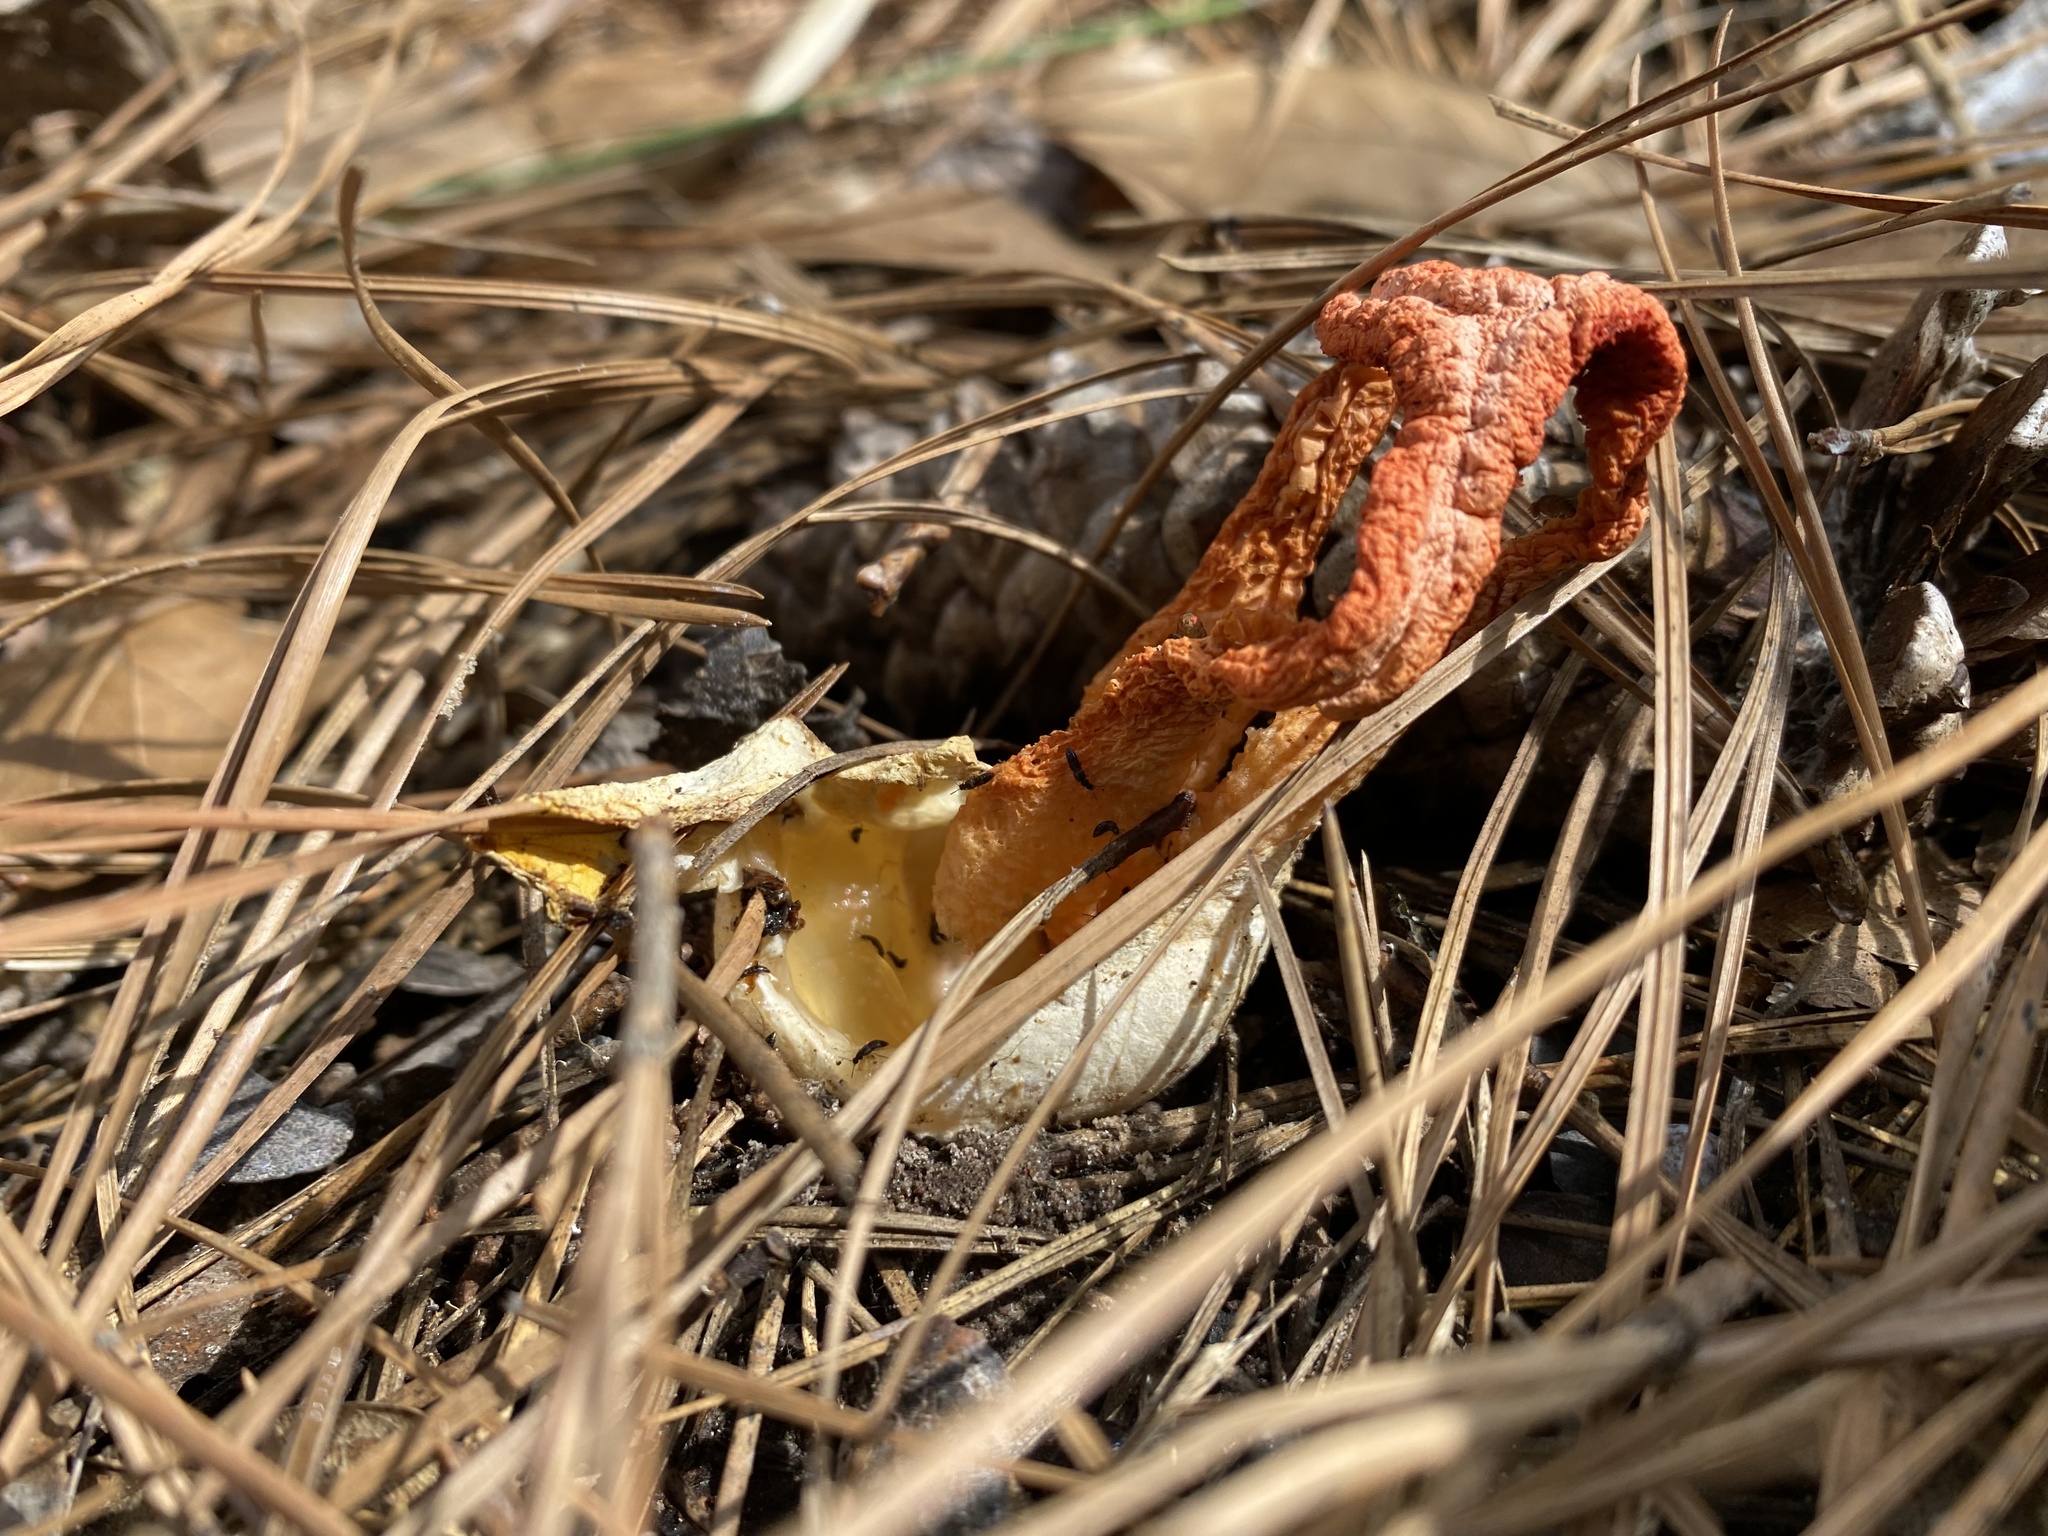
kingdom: Fungi
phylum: Basidiomycota
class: Agaricomycetes
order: Phallales
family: Phallaceae
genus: Clathrus
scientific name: Clathrus columnatus
